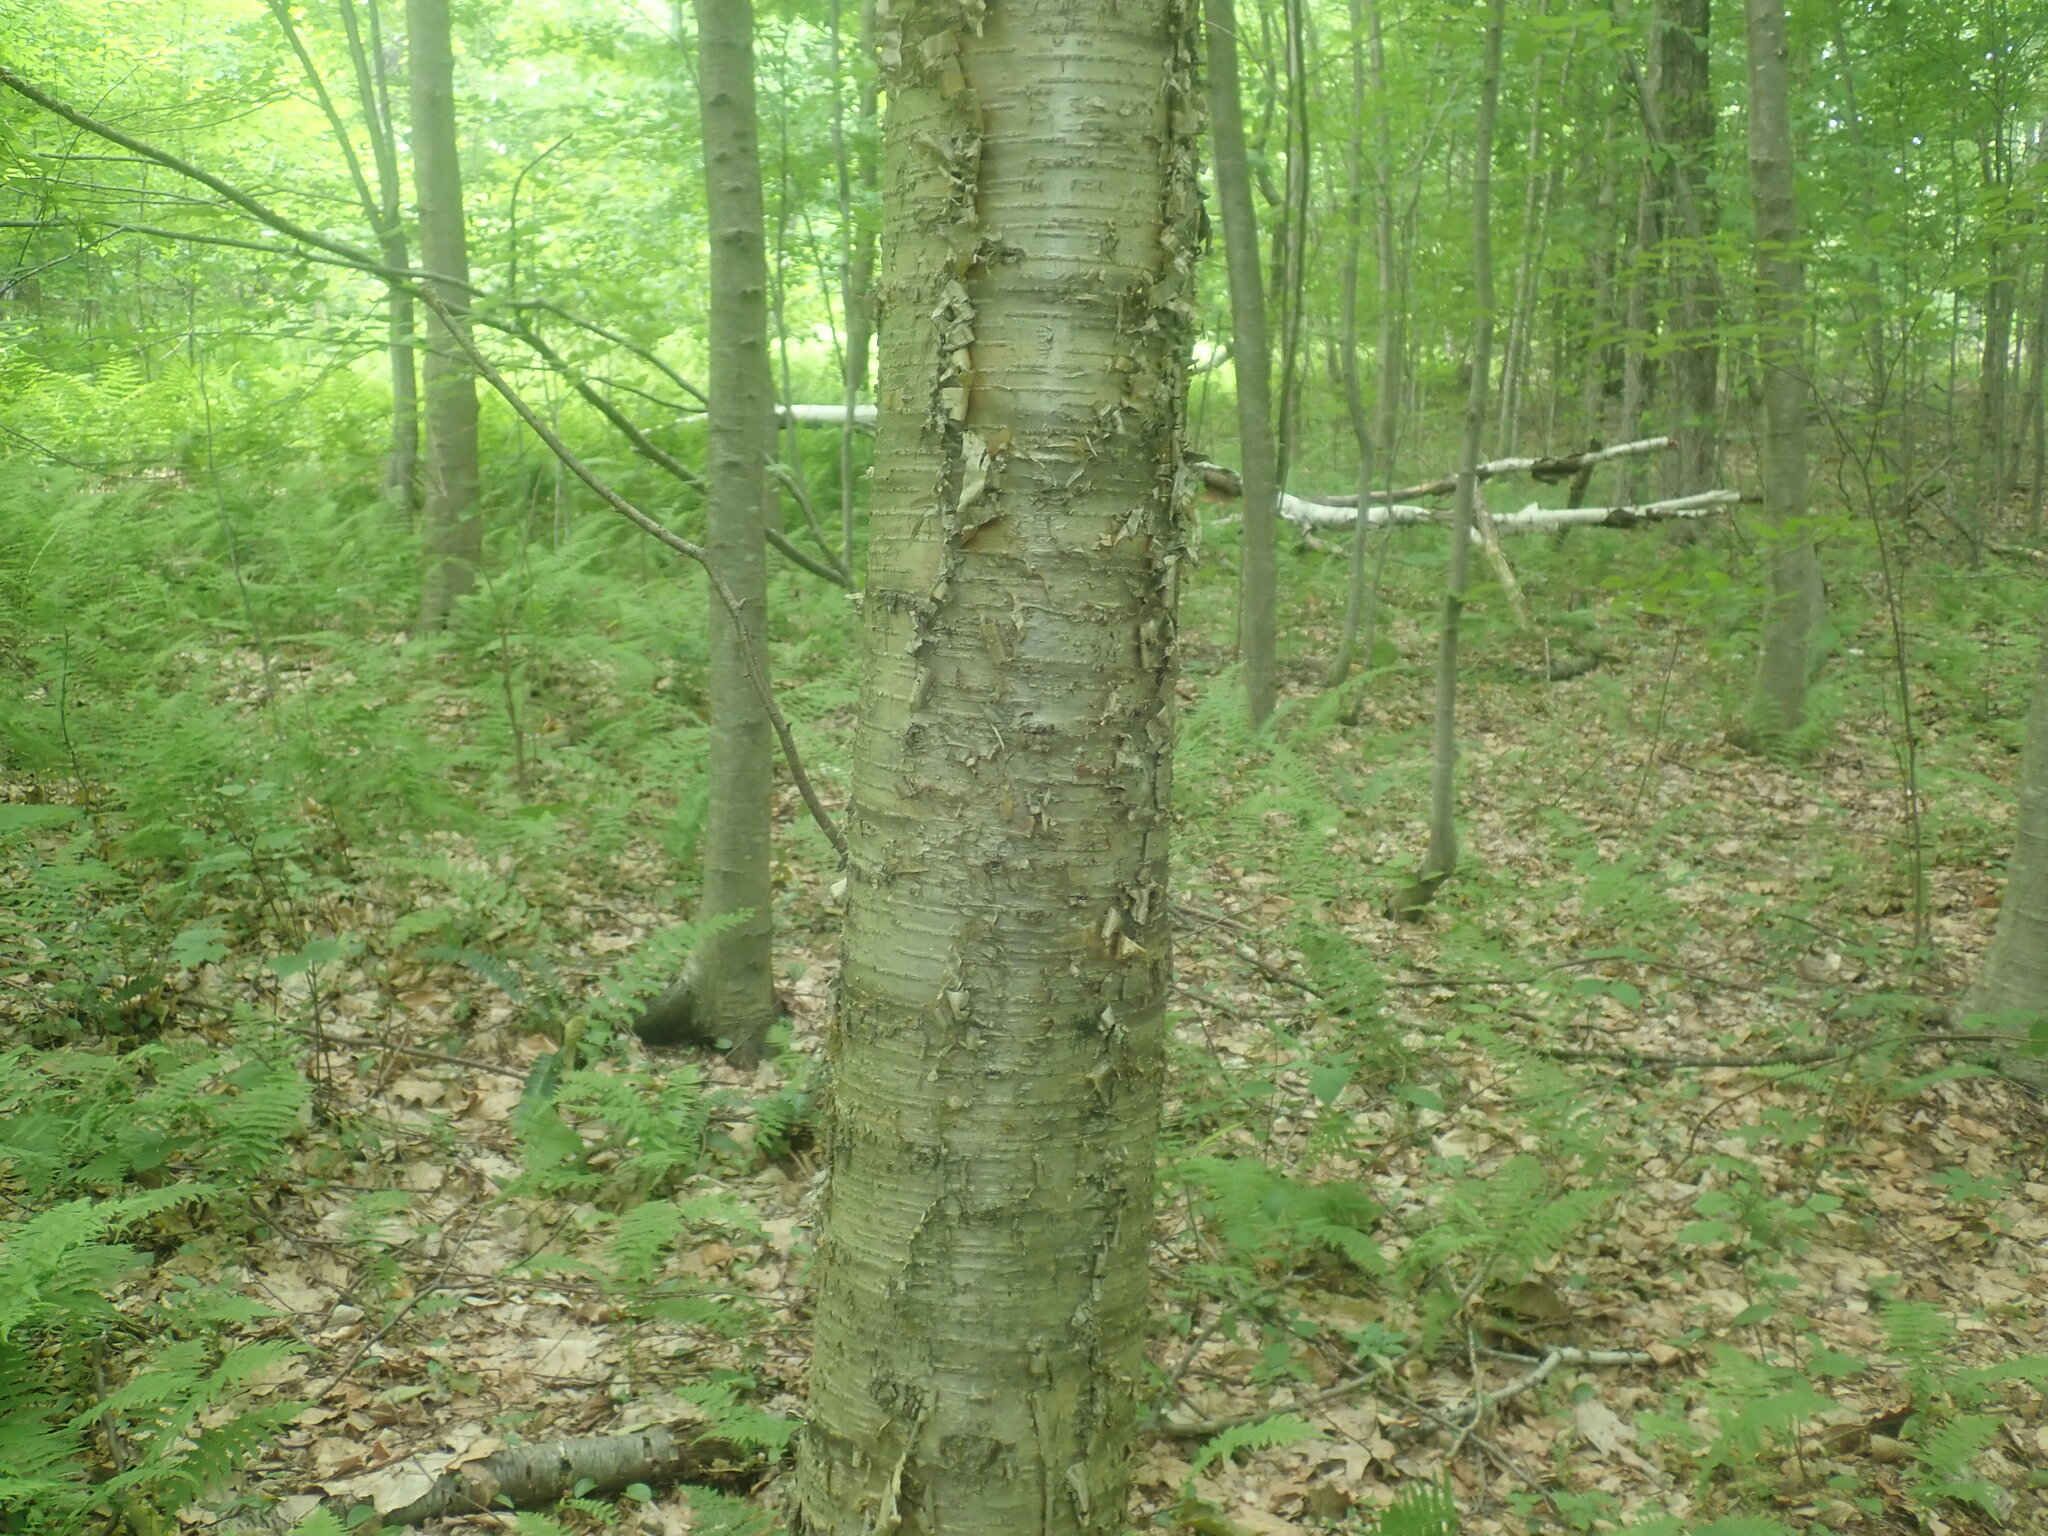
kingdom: Plantae
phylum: Tracheophyta
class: Magnoliopsida
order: Fagales
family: Betulaceae
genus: Betula
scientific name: Betula alleghaniensis
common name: Yellow birch
